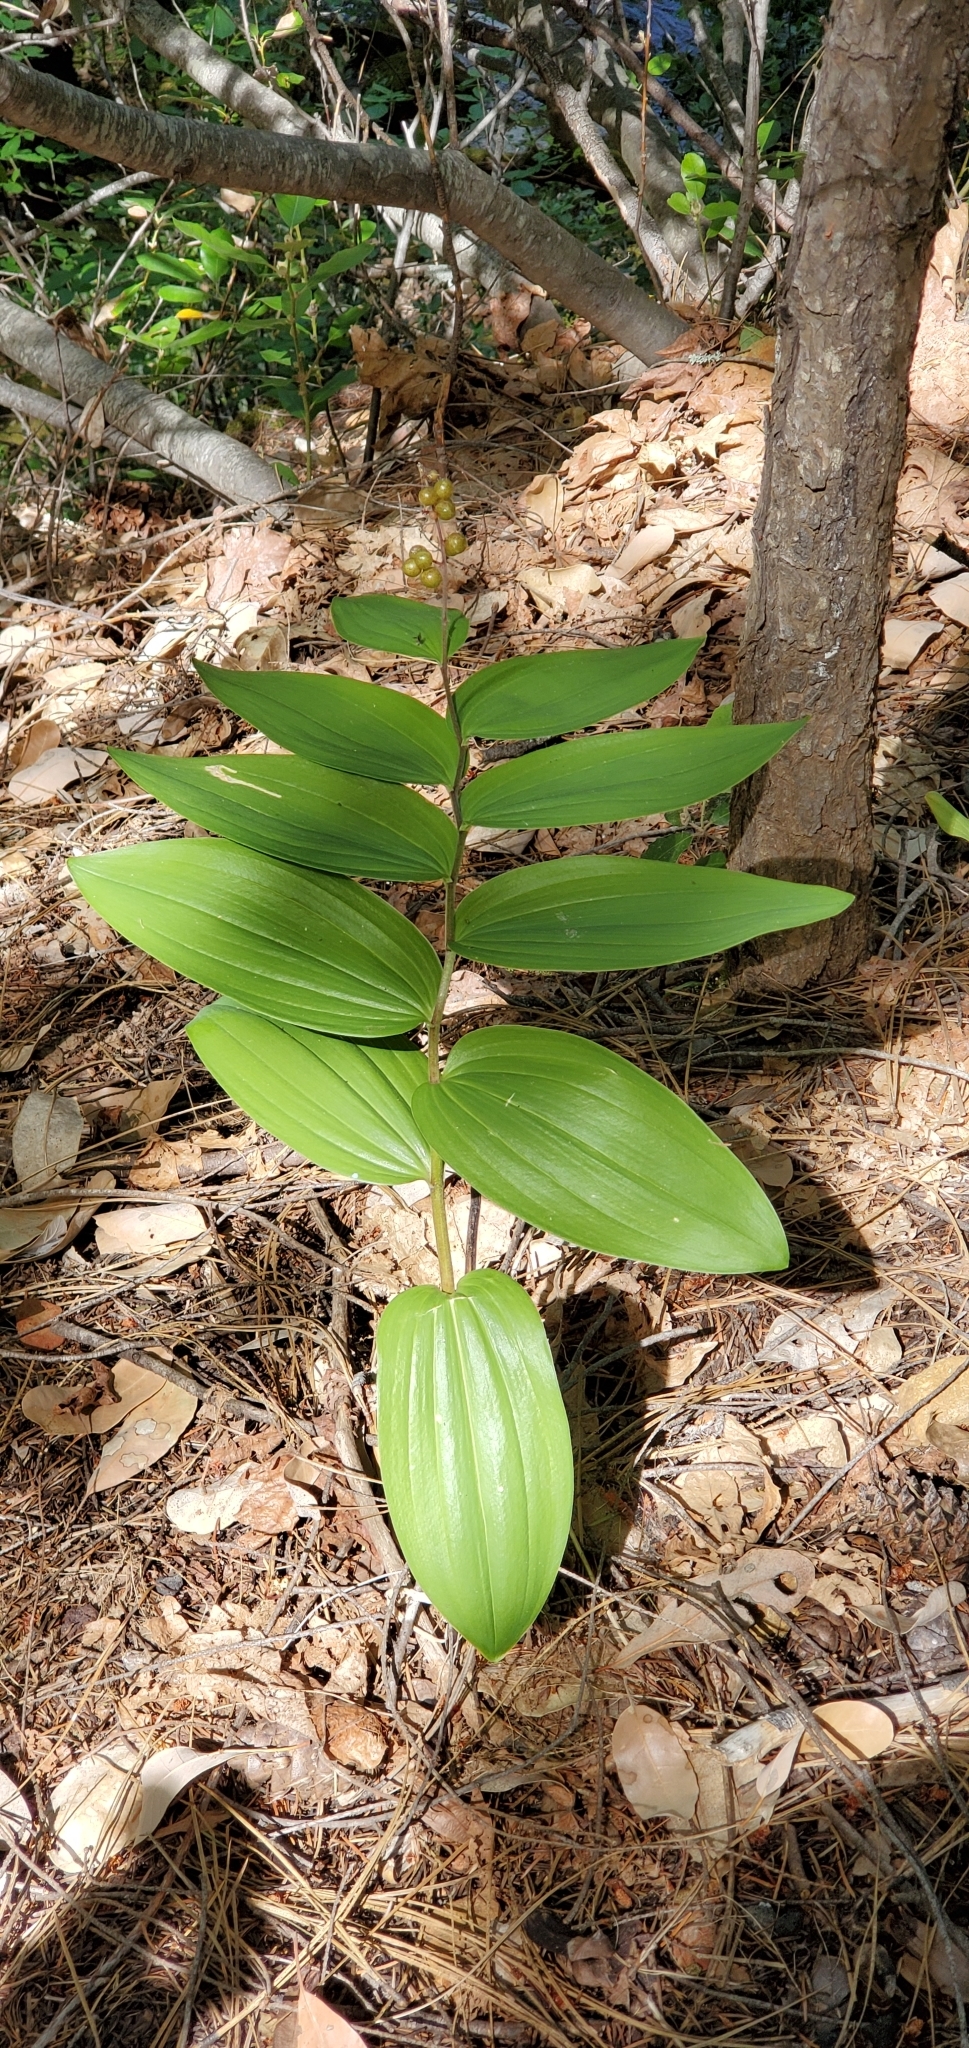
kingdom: Plantae
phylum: Tracheophyta
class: Liliopsida
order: Asparagales
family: Asparagaceae
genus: Maianthemum
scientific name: Maianthemum racemosum
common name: False spikenard
